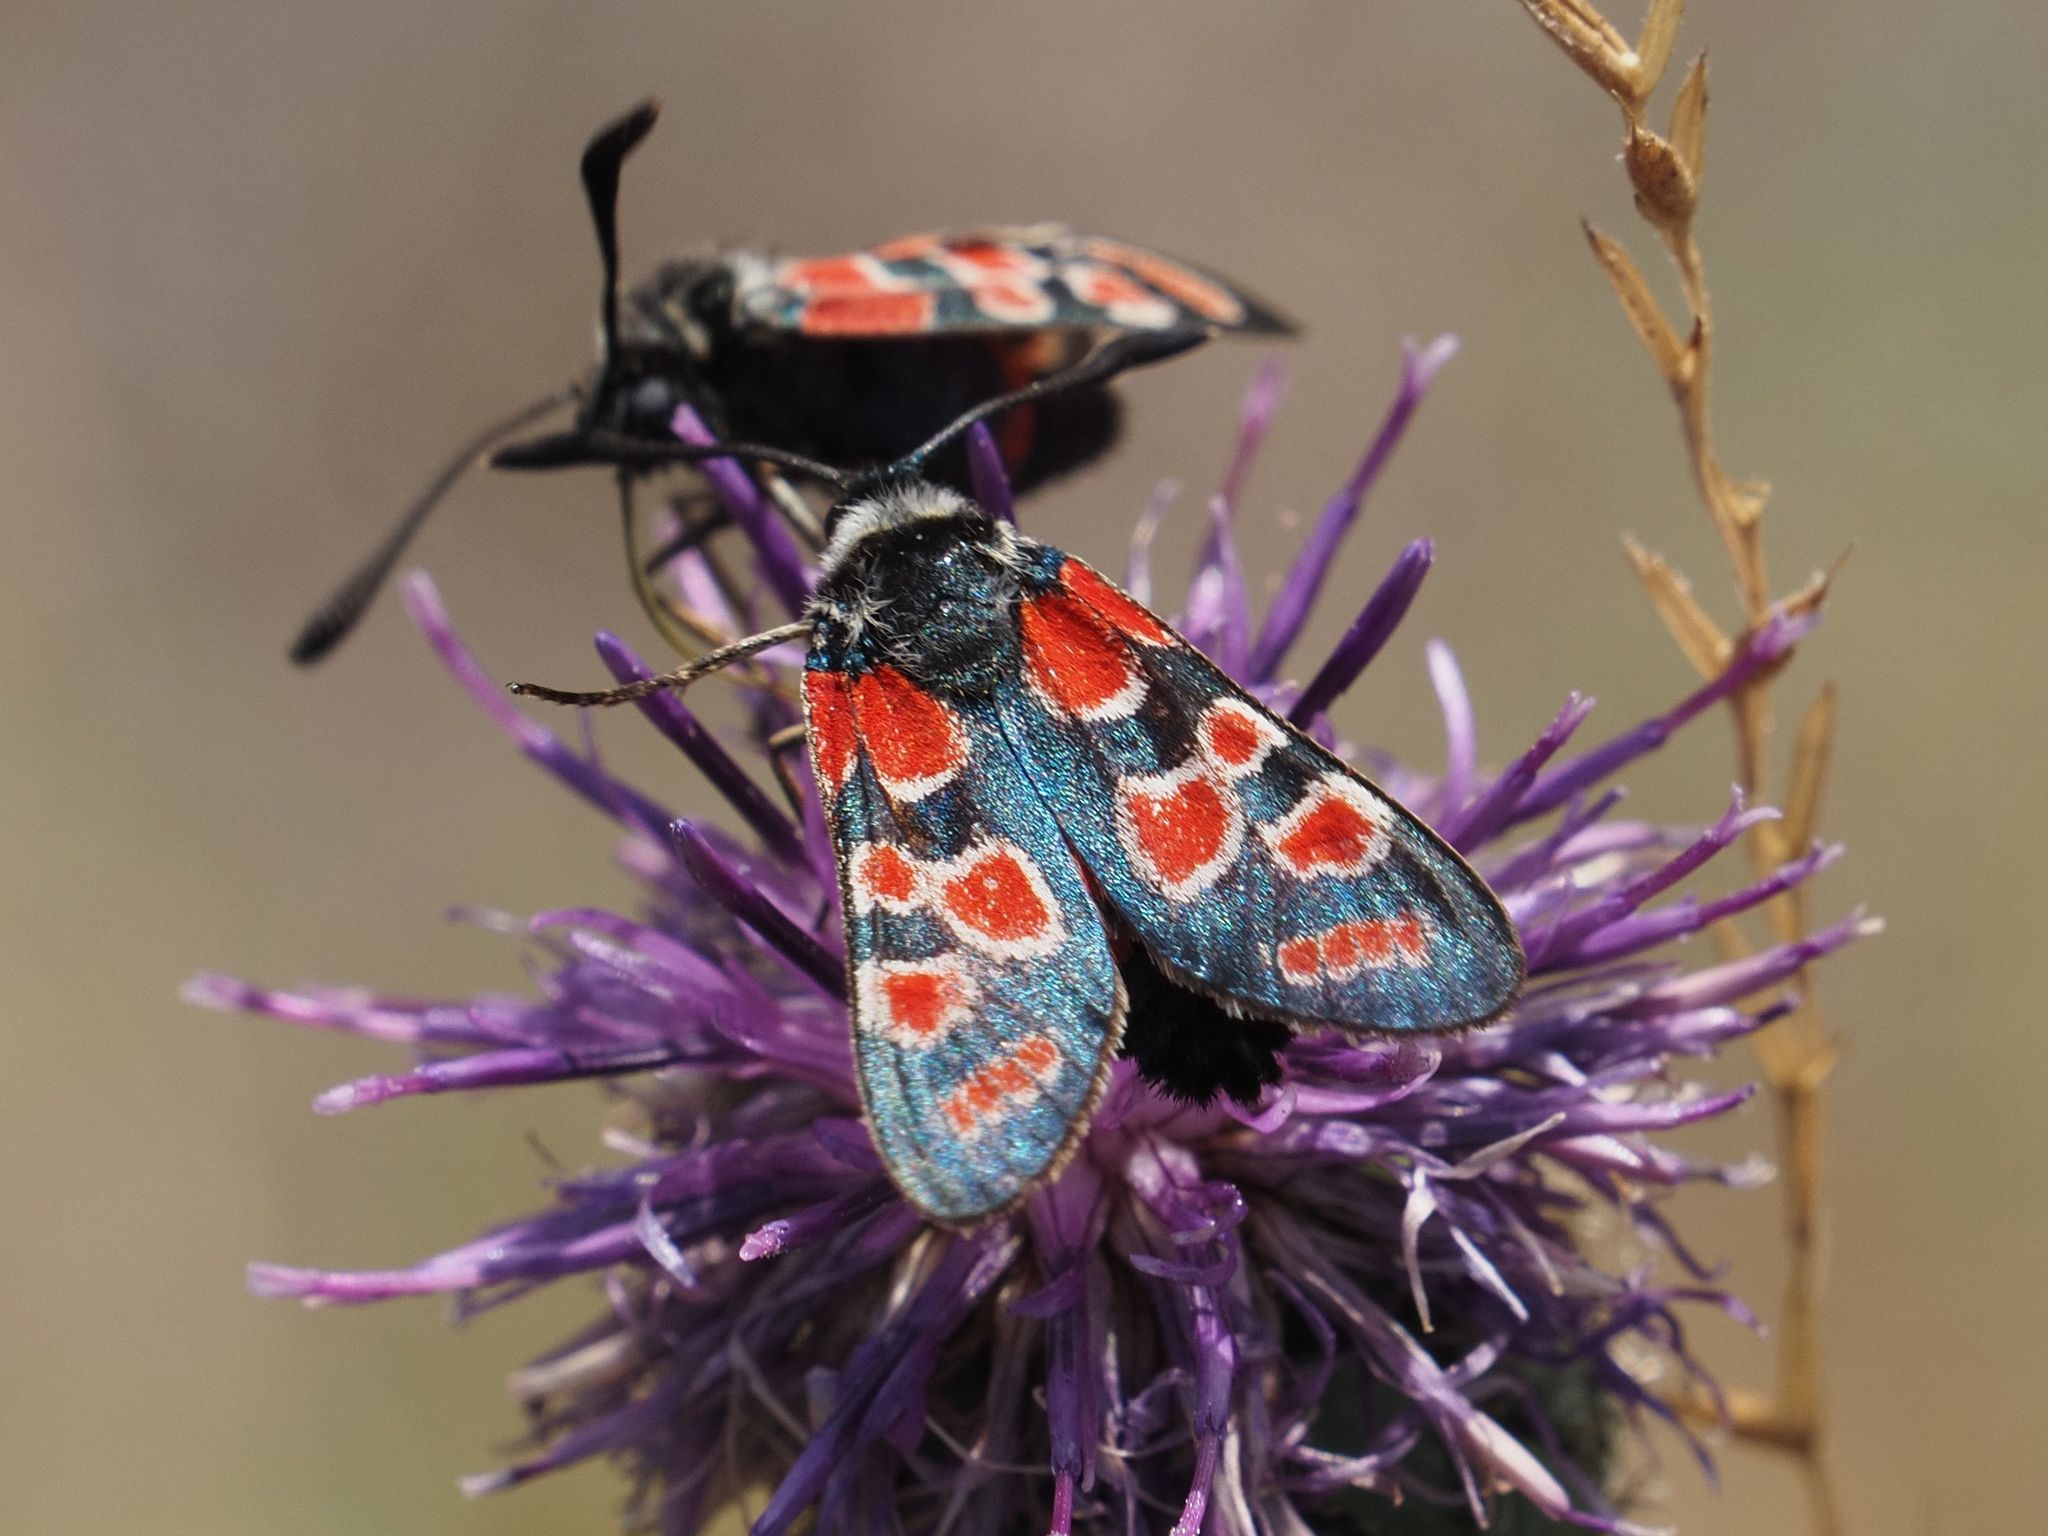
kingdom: Animalia
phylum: Arthropoda
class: Insecta
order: Lepidoptera
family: Zygaenidae
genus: Zygaena
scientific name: Zygaena carniolica
